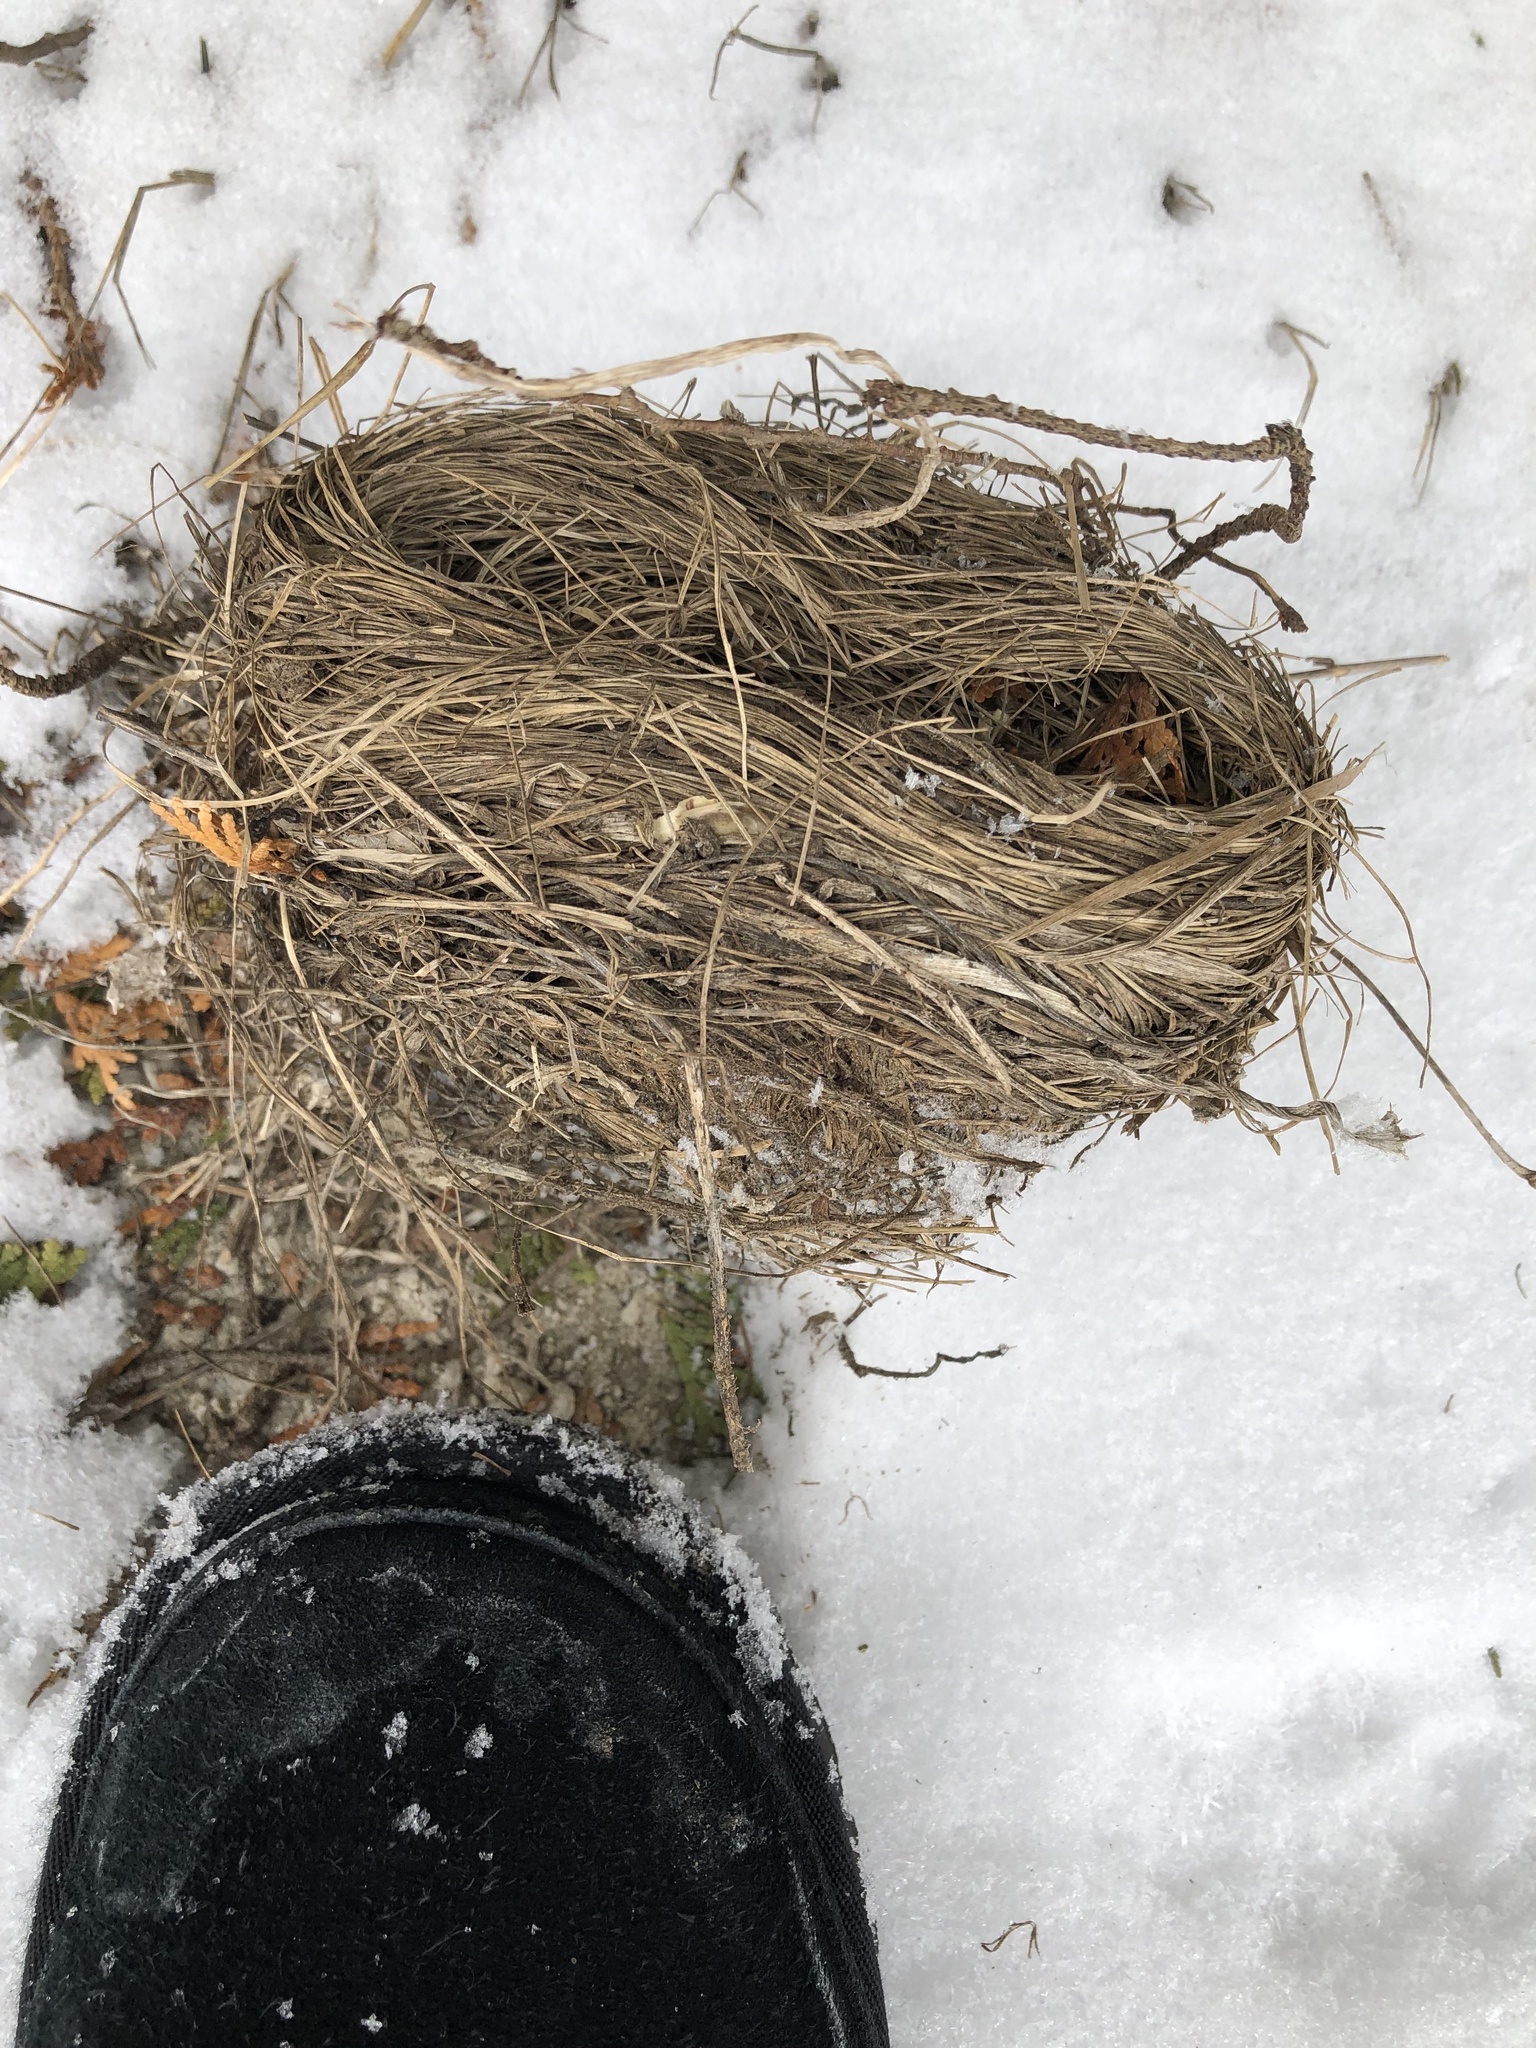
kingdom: Animalia
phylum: Chordata
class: Aves
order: Passeriformes
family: Turdidae
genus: Turdus
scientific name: Turdus migratorius
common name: American robin
